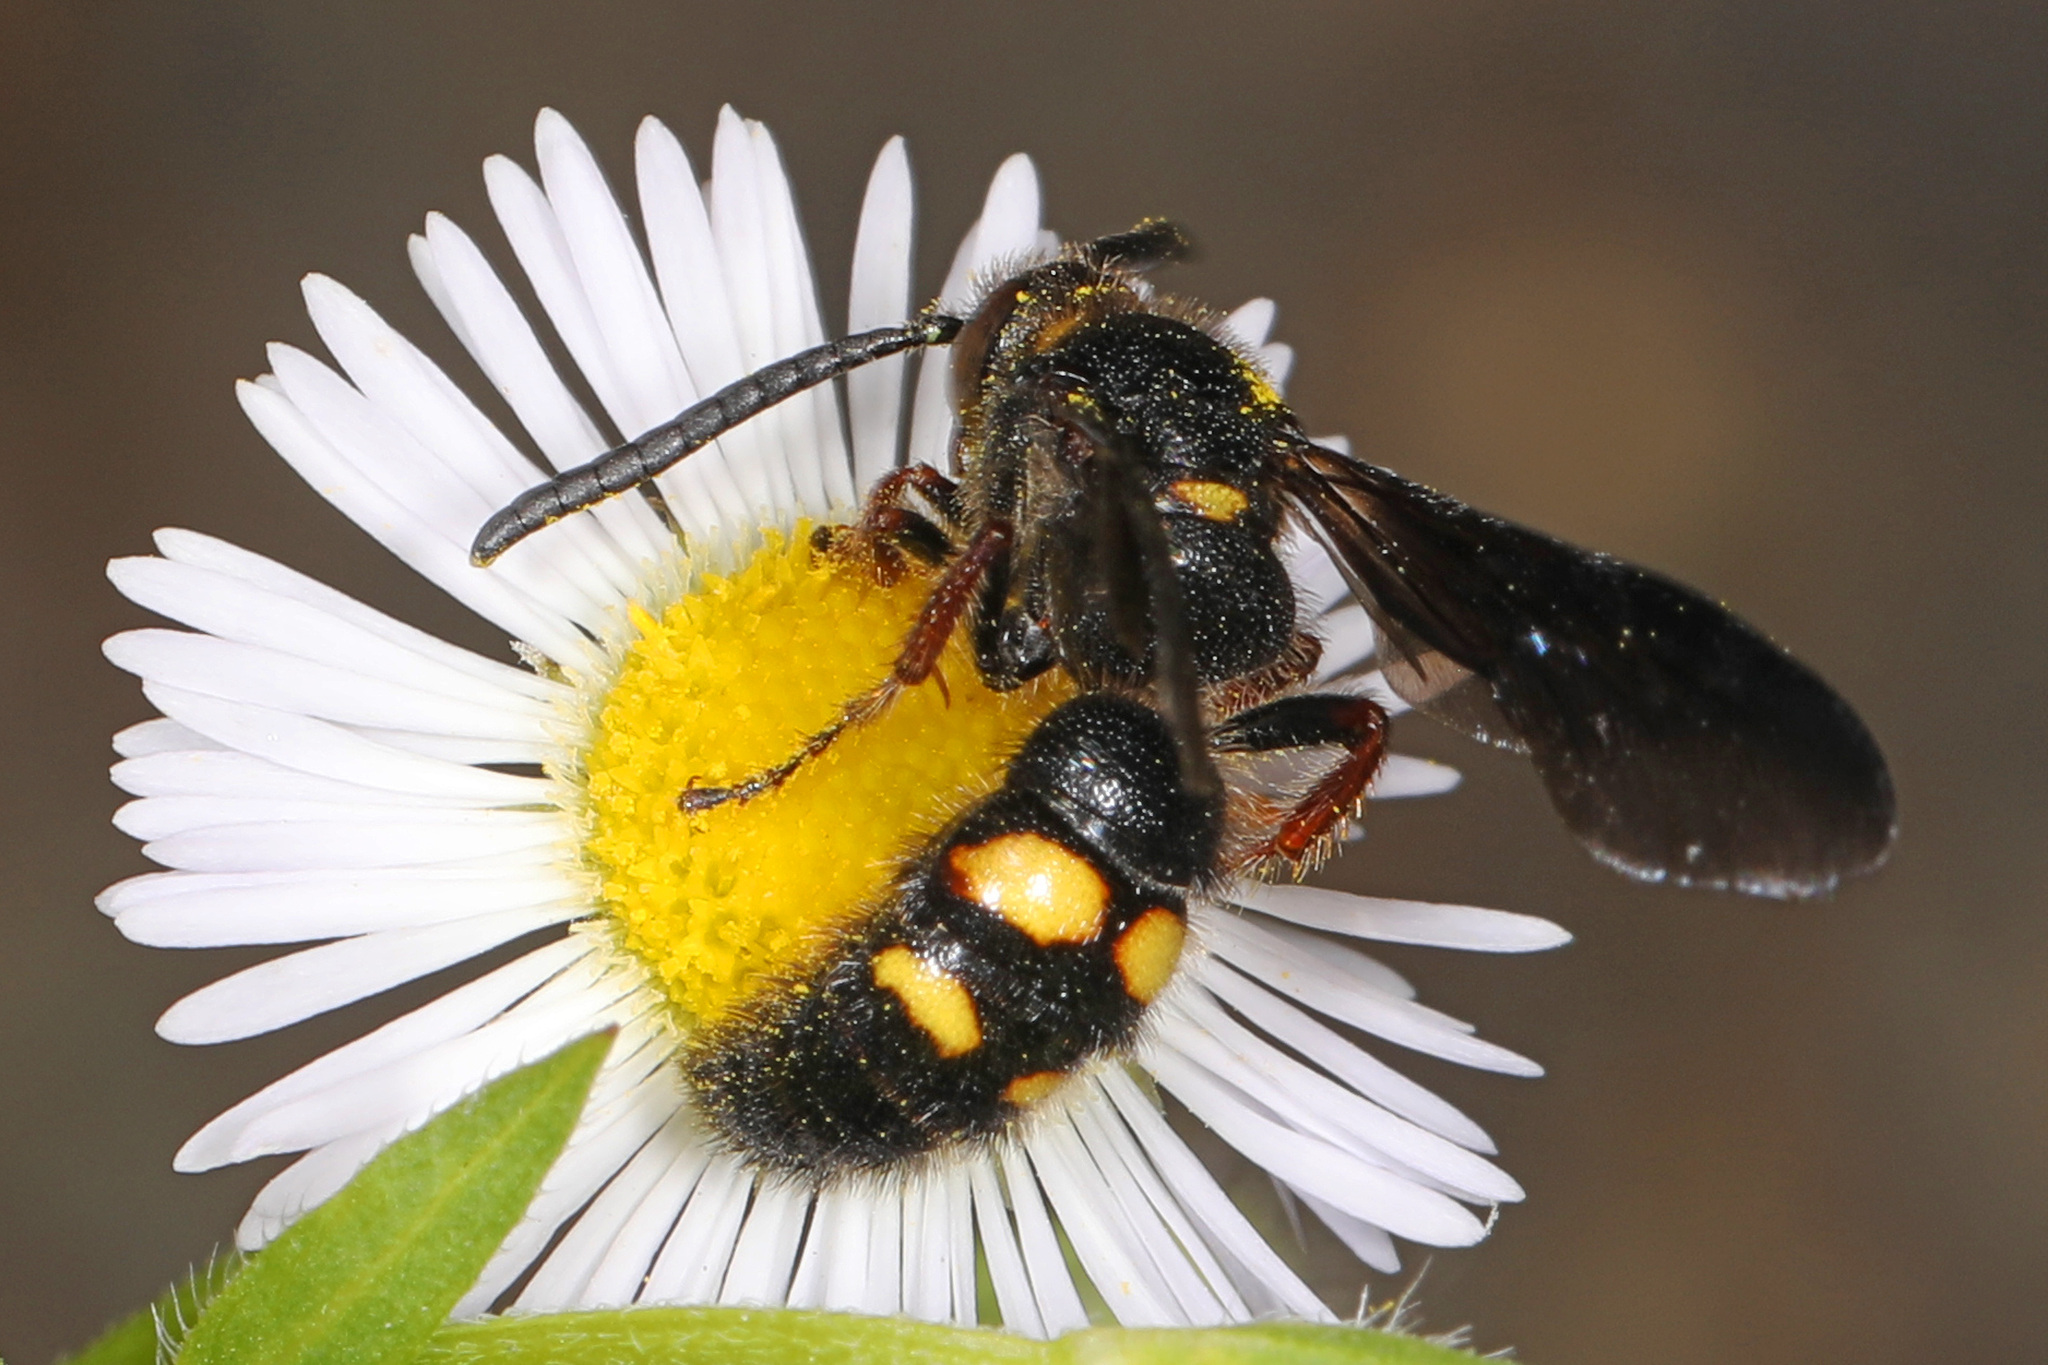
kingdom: Animalia
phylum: Arthropoda
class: Insecta
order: Hymenoptera
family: Scoliidae
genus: Scolia
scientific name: Scolia nobilitata
